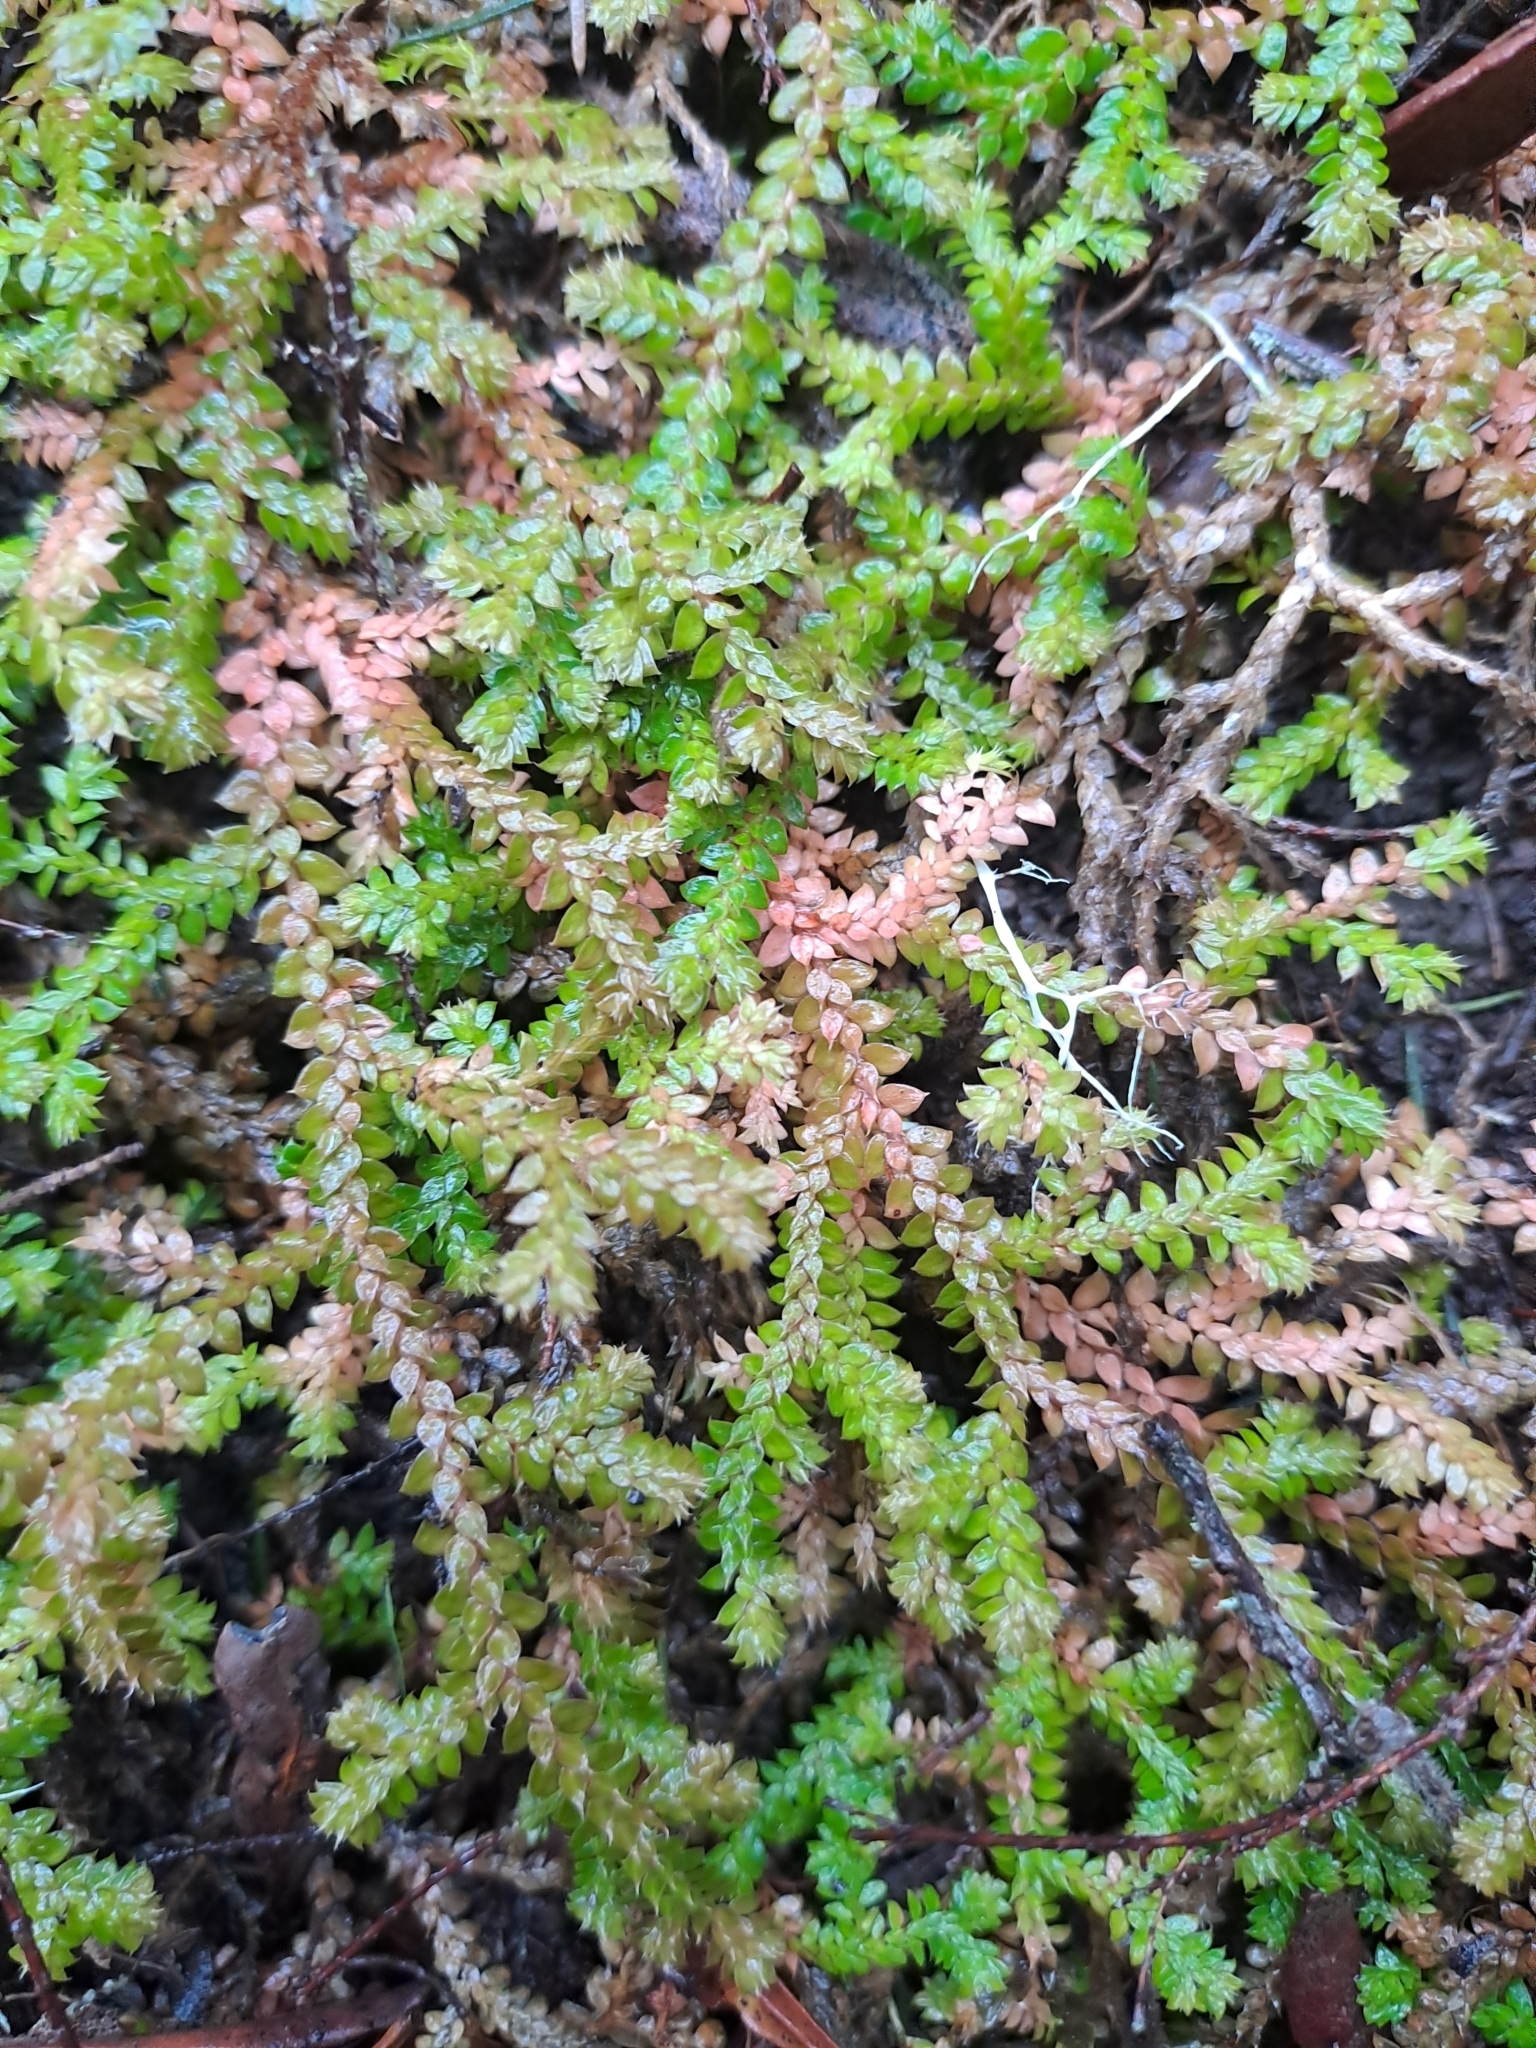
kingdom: Plantae
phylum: Tracheophyta
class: Lycopodiopsida
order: Selaginellales
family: Selaginellaceae
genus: Selaginella
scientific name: Selaginella denticulata
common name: Toothed-leaved clubmoss
